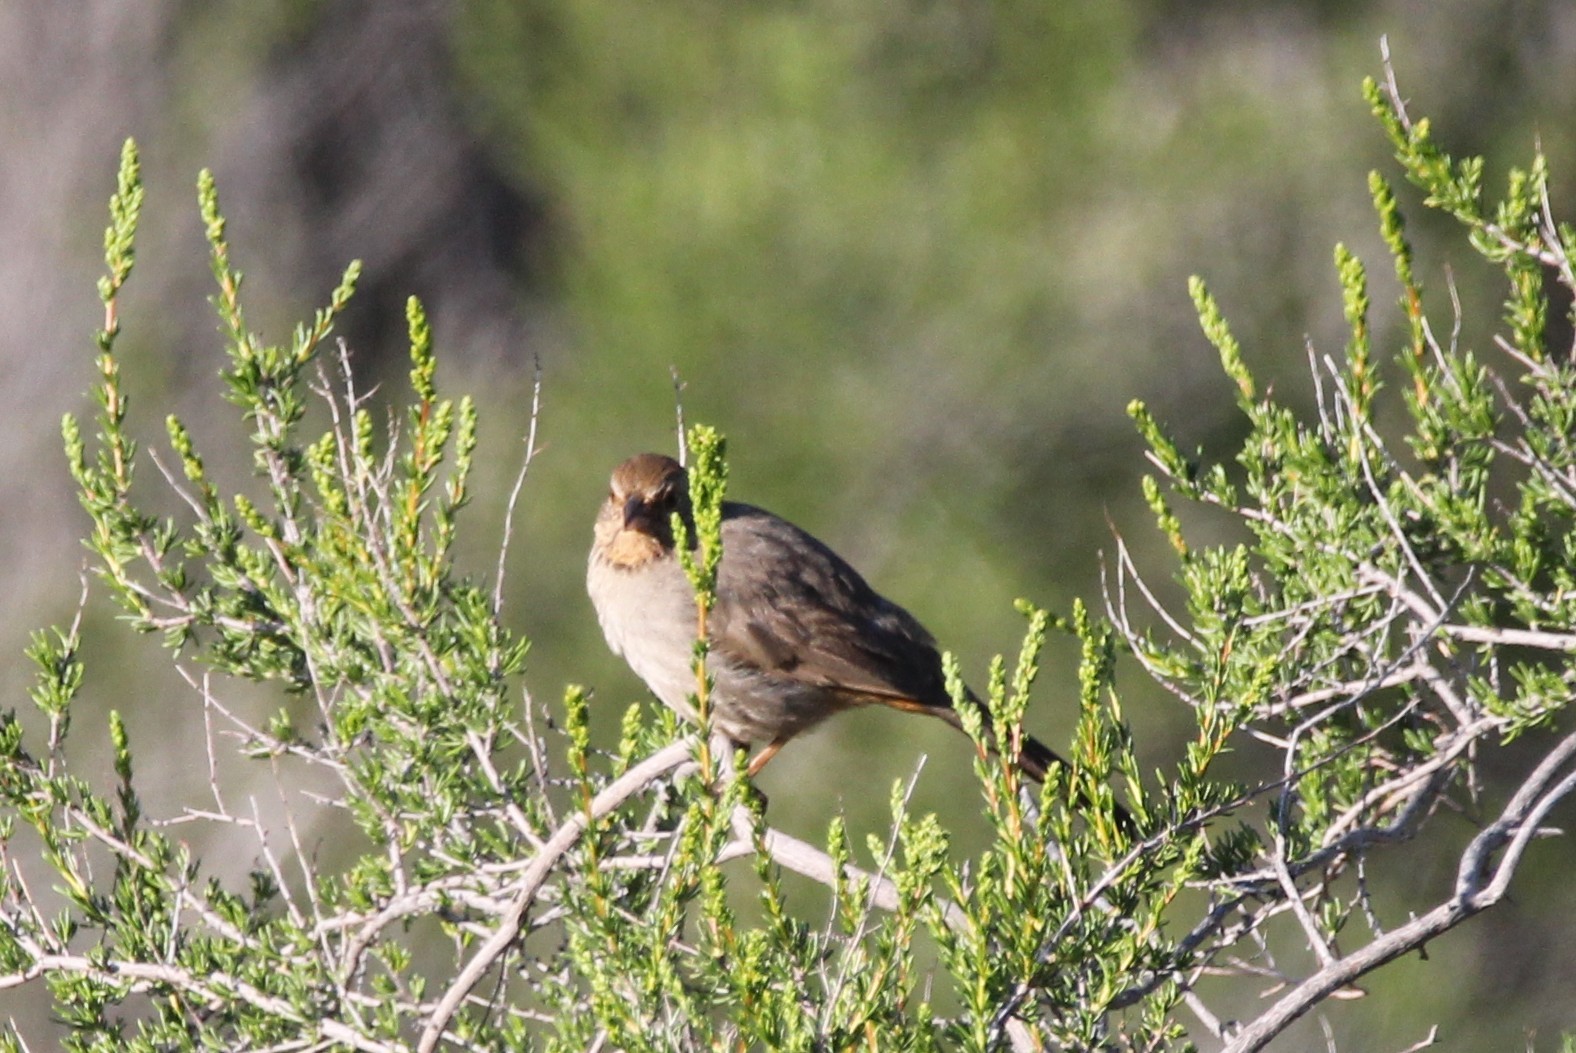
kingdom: Animalia
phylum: Chordata
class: Aves
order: Passeriformes
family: Passerellidae
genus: Melozone
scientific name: Melozone crissalis
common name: California towhee
